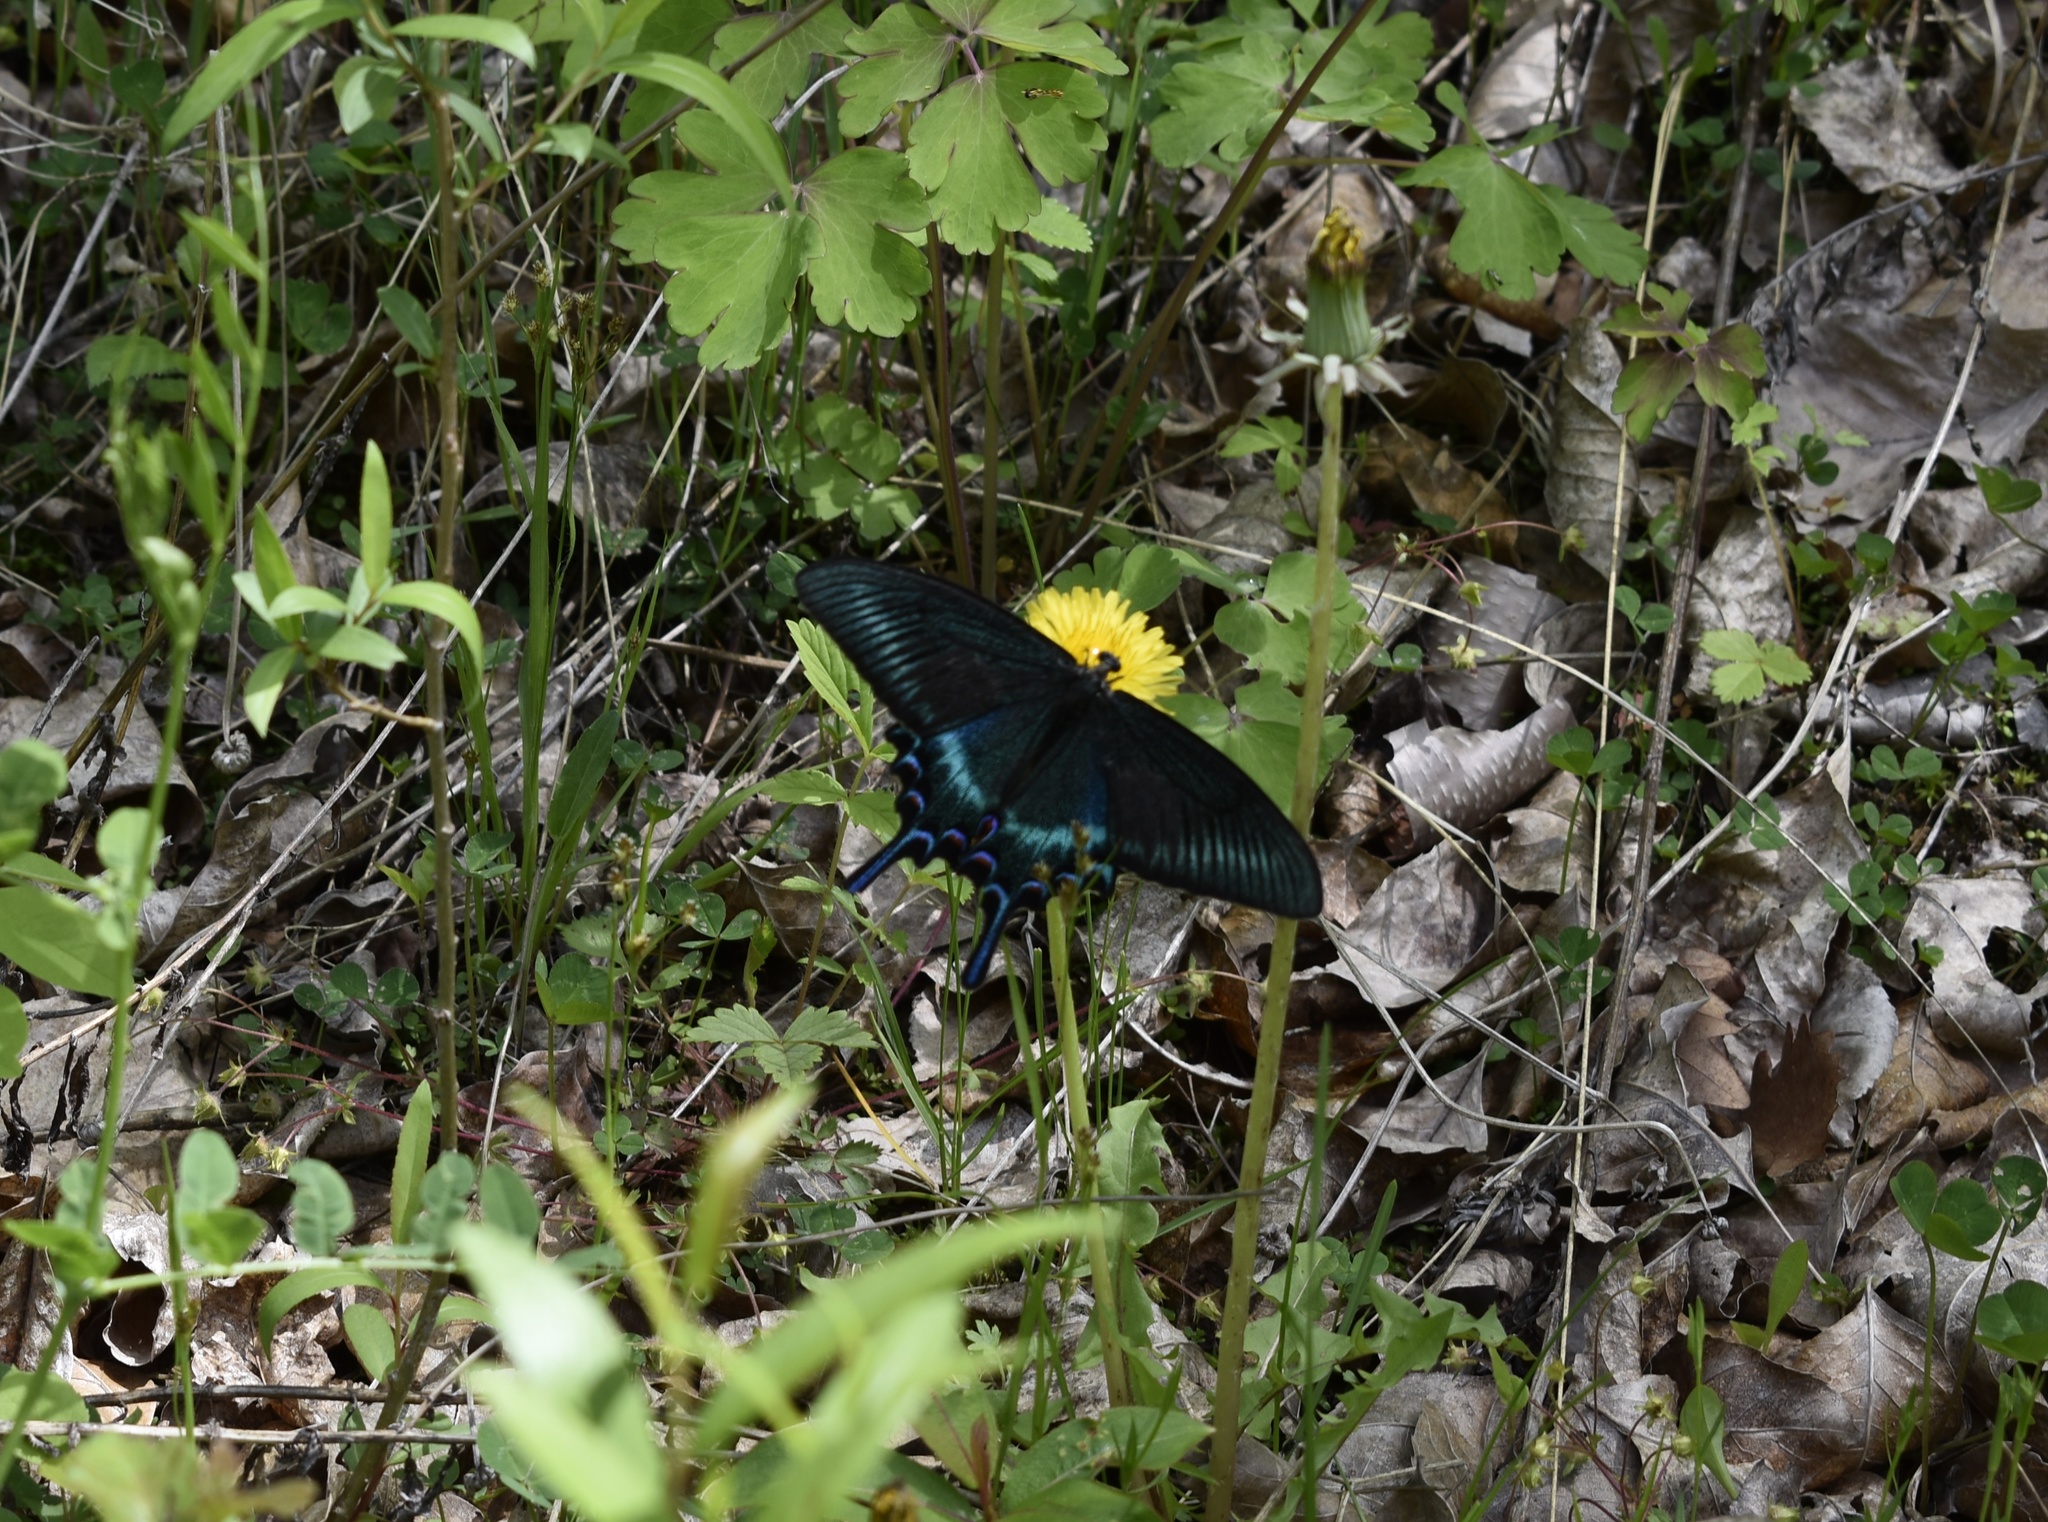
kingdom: Animalia
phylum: Arthropoda
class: Insecta
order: Lepidoptera
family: Papilionidae
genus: Papilio
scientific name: Papilio maackii
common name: Alpine black swallowtail
